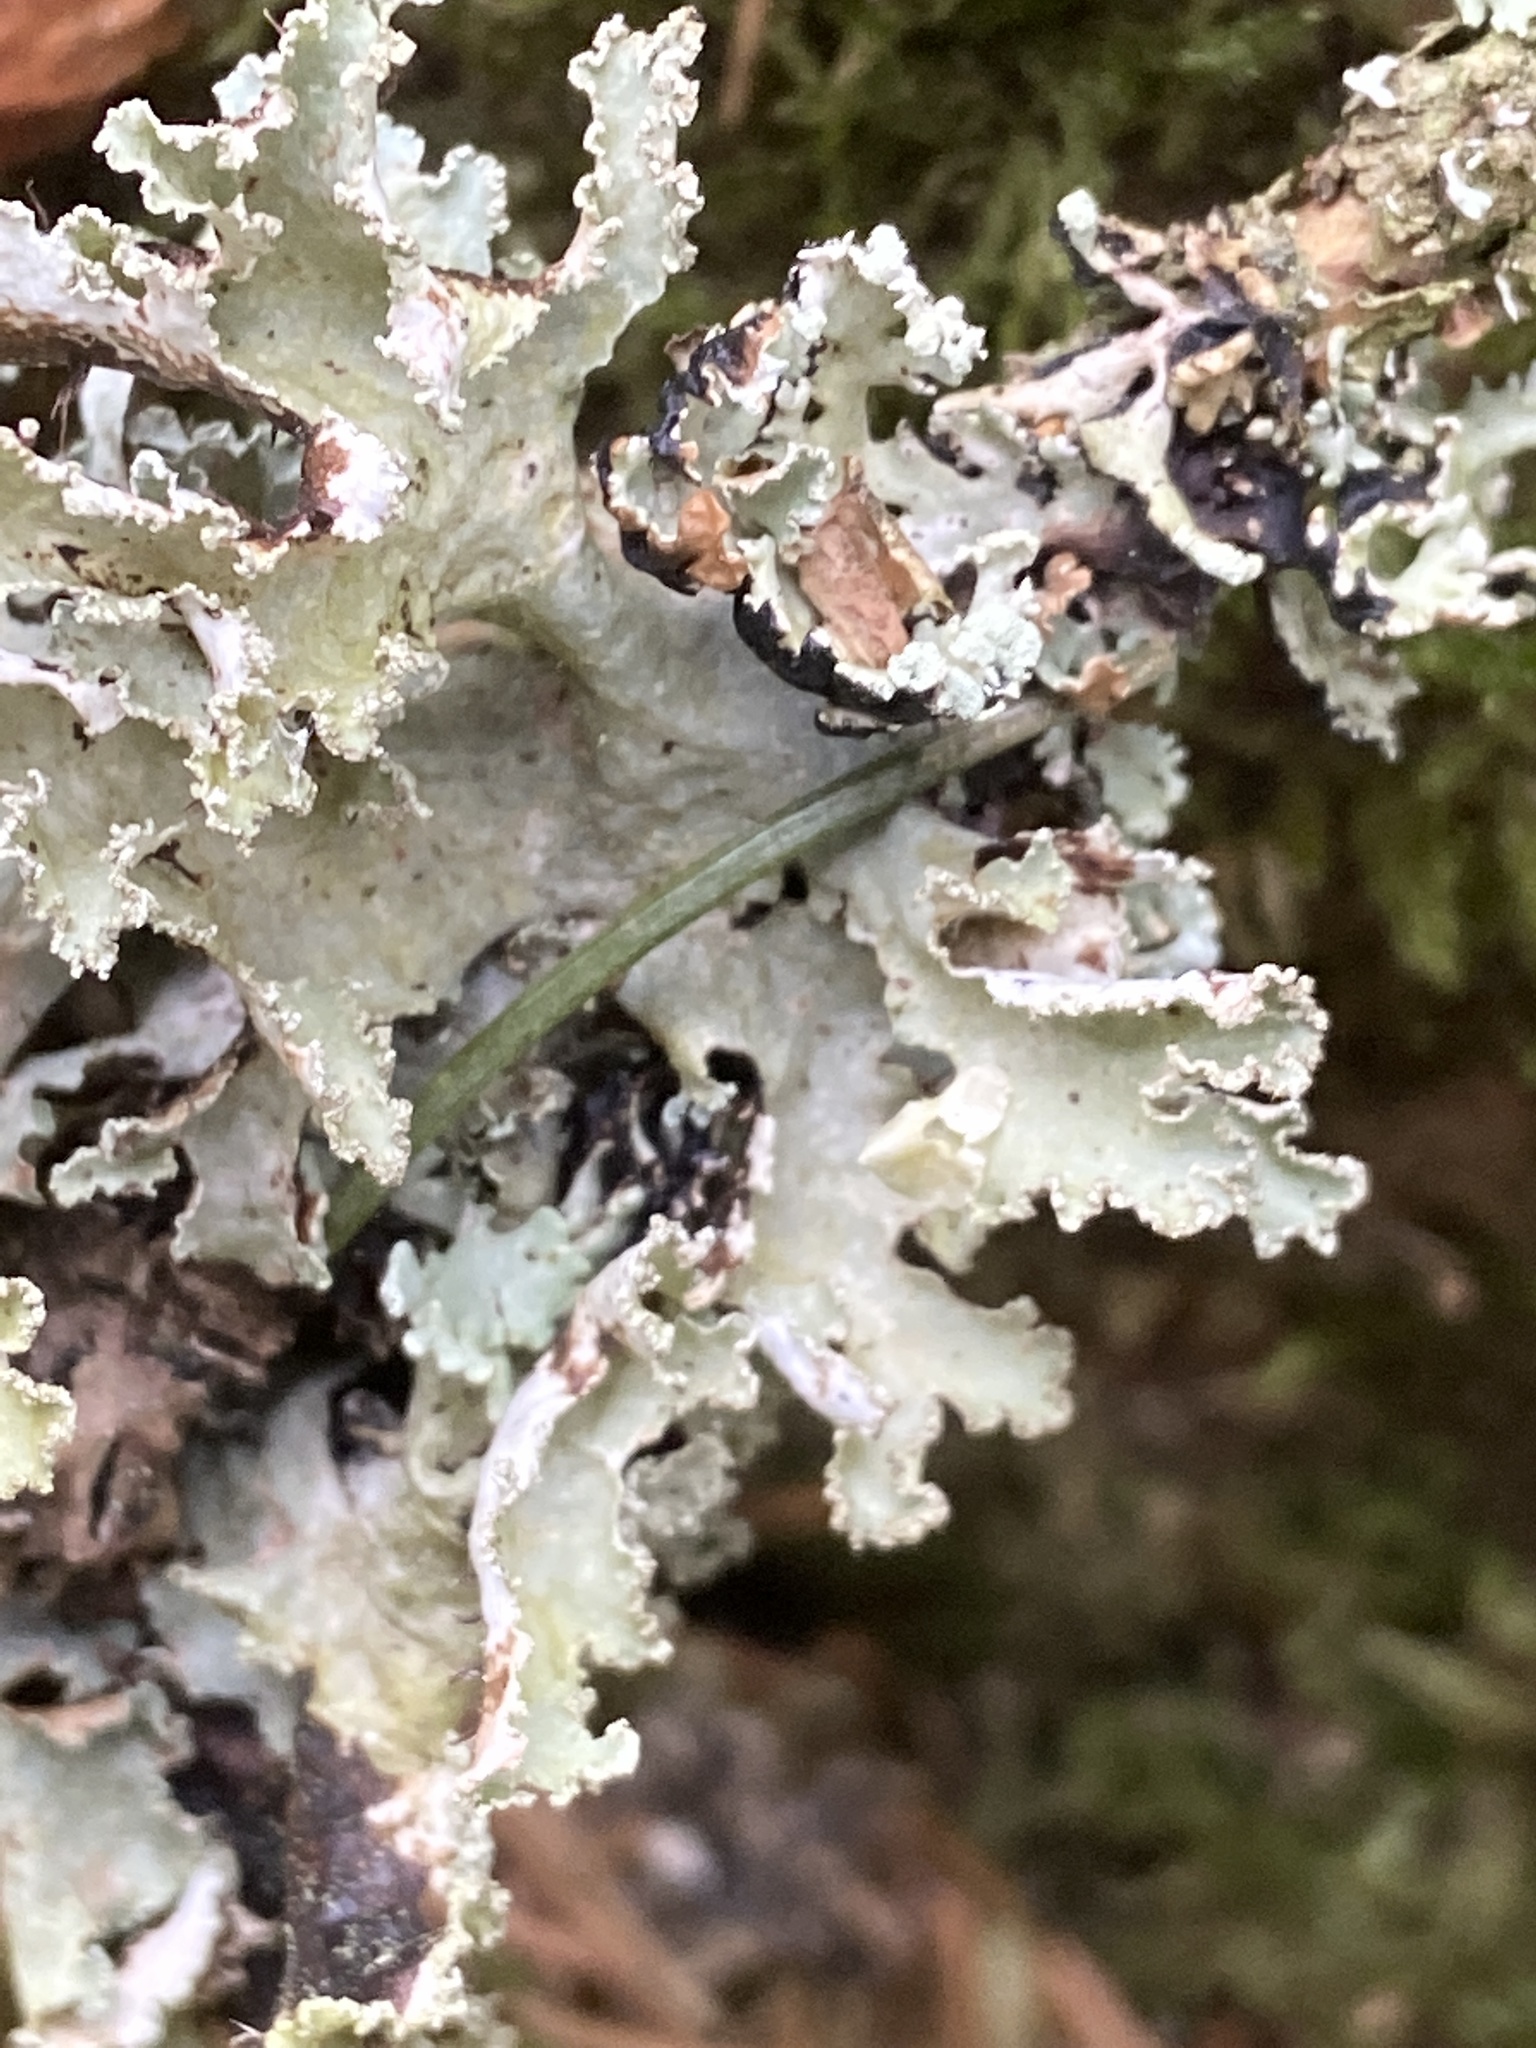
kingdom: Fungi
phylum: Ascomycota
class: Lecanoromycetes
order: Lecanorales
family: Parmeliaceae
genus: Platismatia
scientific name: Platismatia glauca
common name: Varied rag lichen
